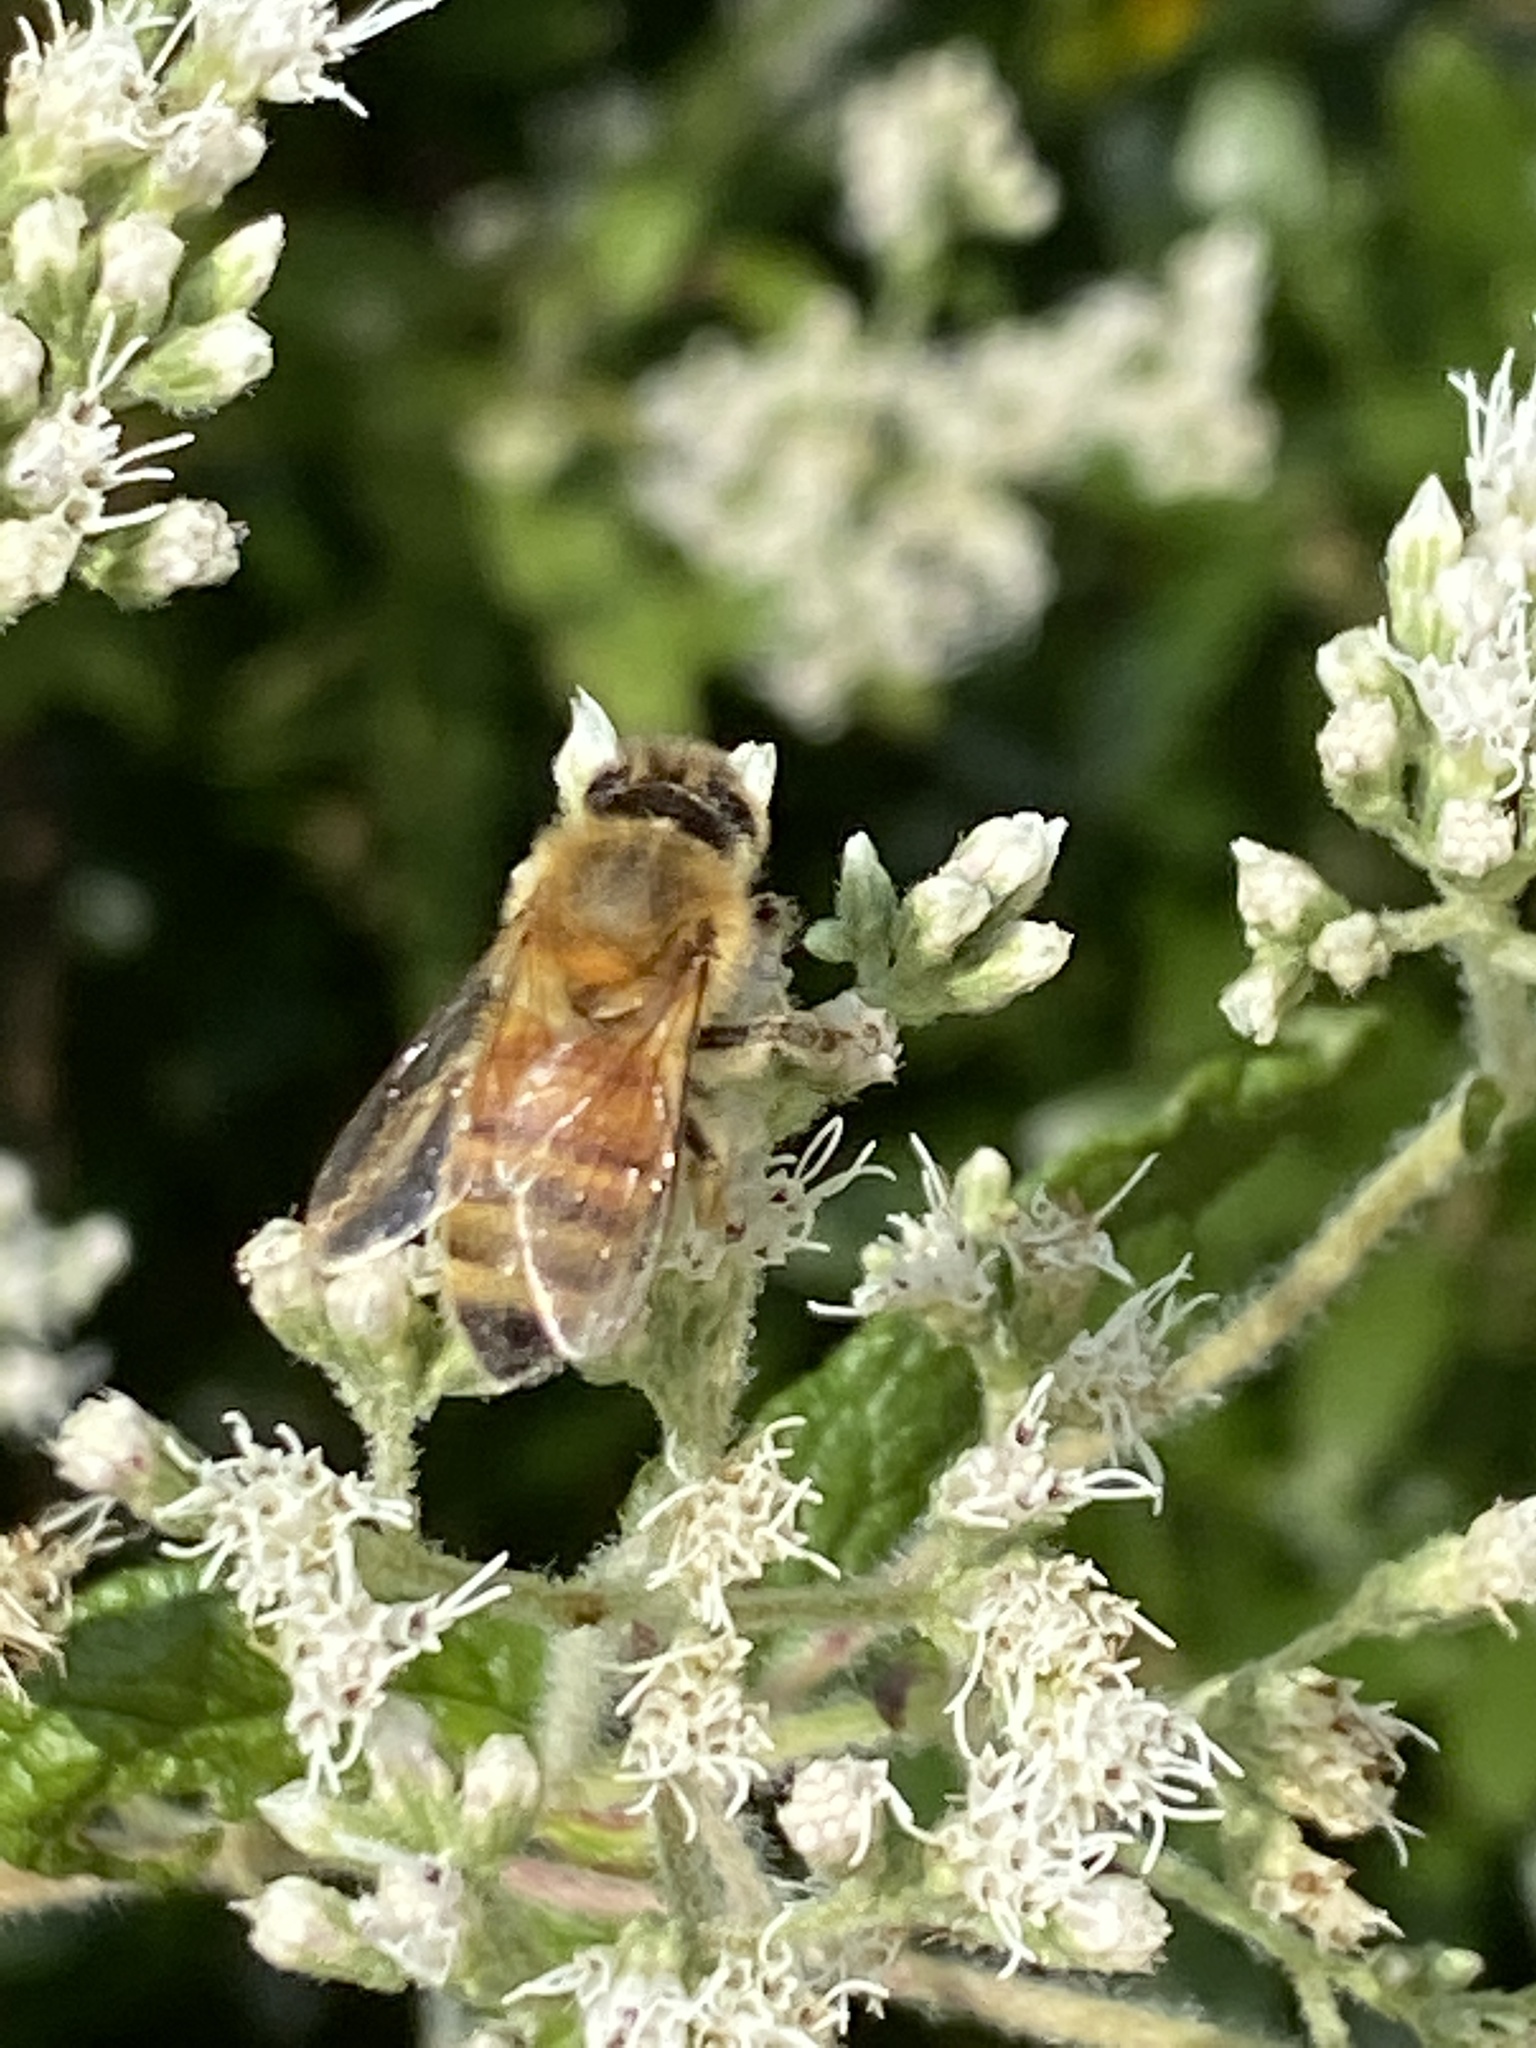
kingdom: Animalia
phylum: Arthropoda
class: Insecta
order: Hymenoptera
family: Apidae
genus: Apis
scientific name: Apis mellifera
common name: Honey bee
